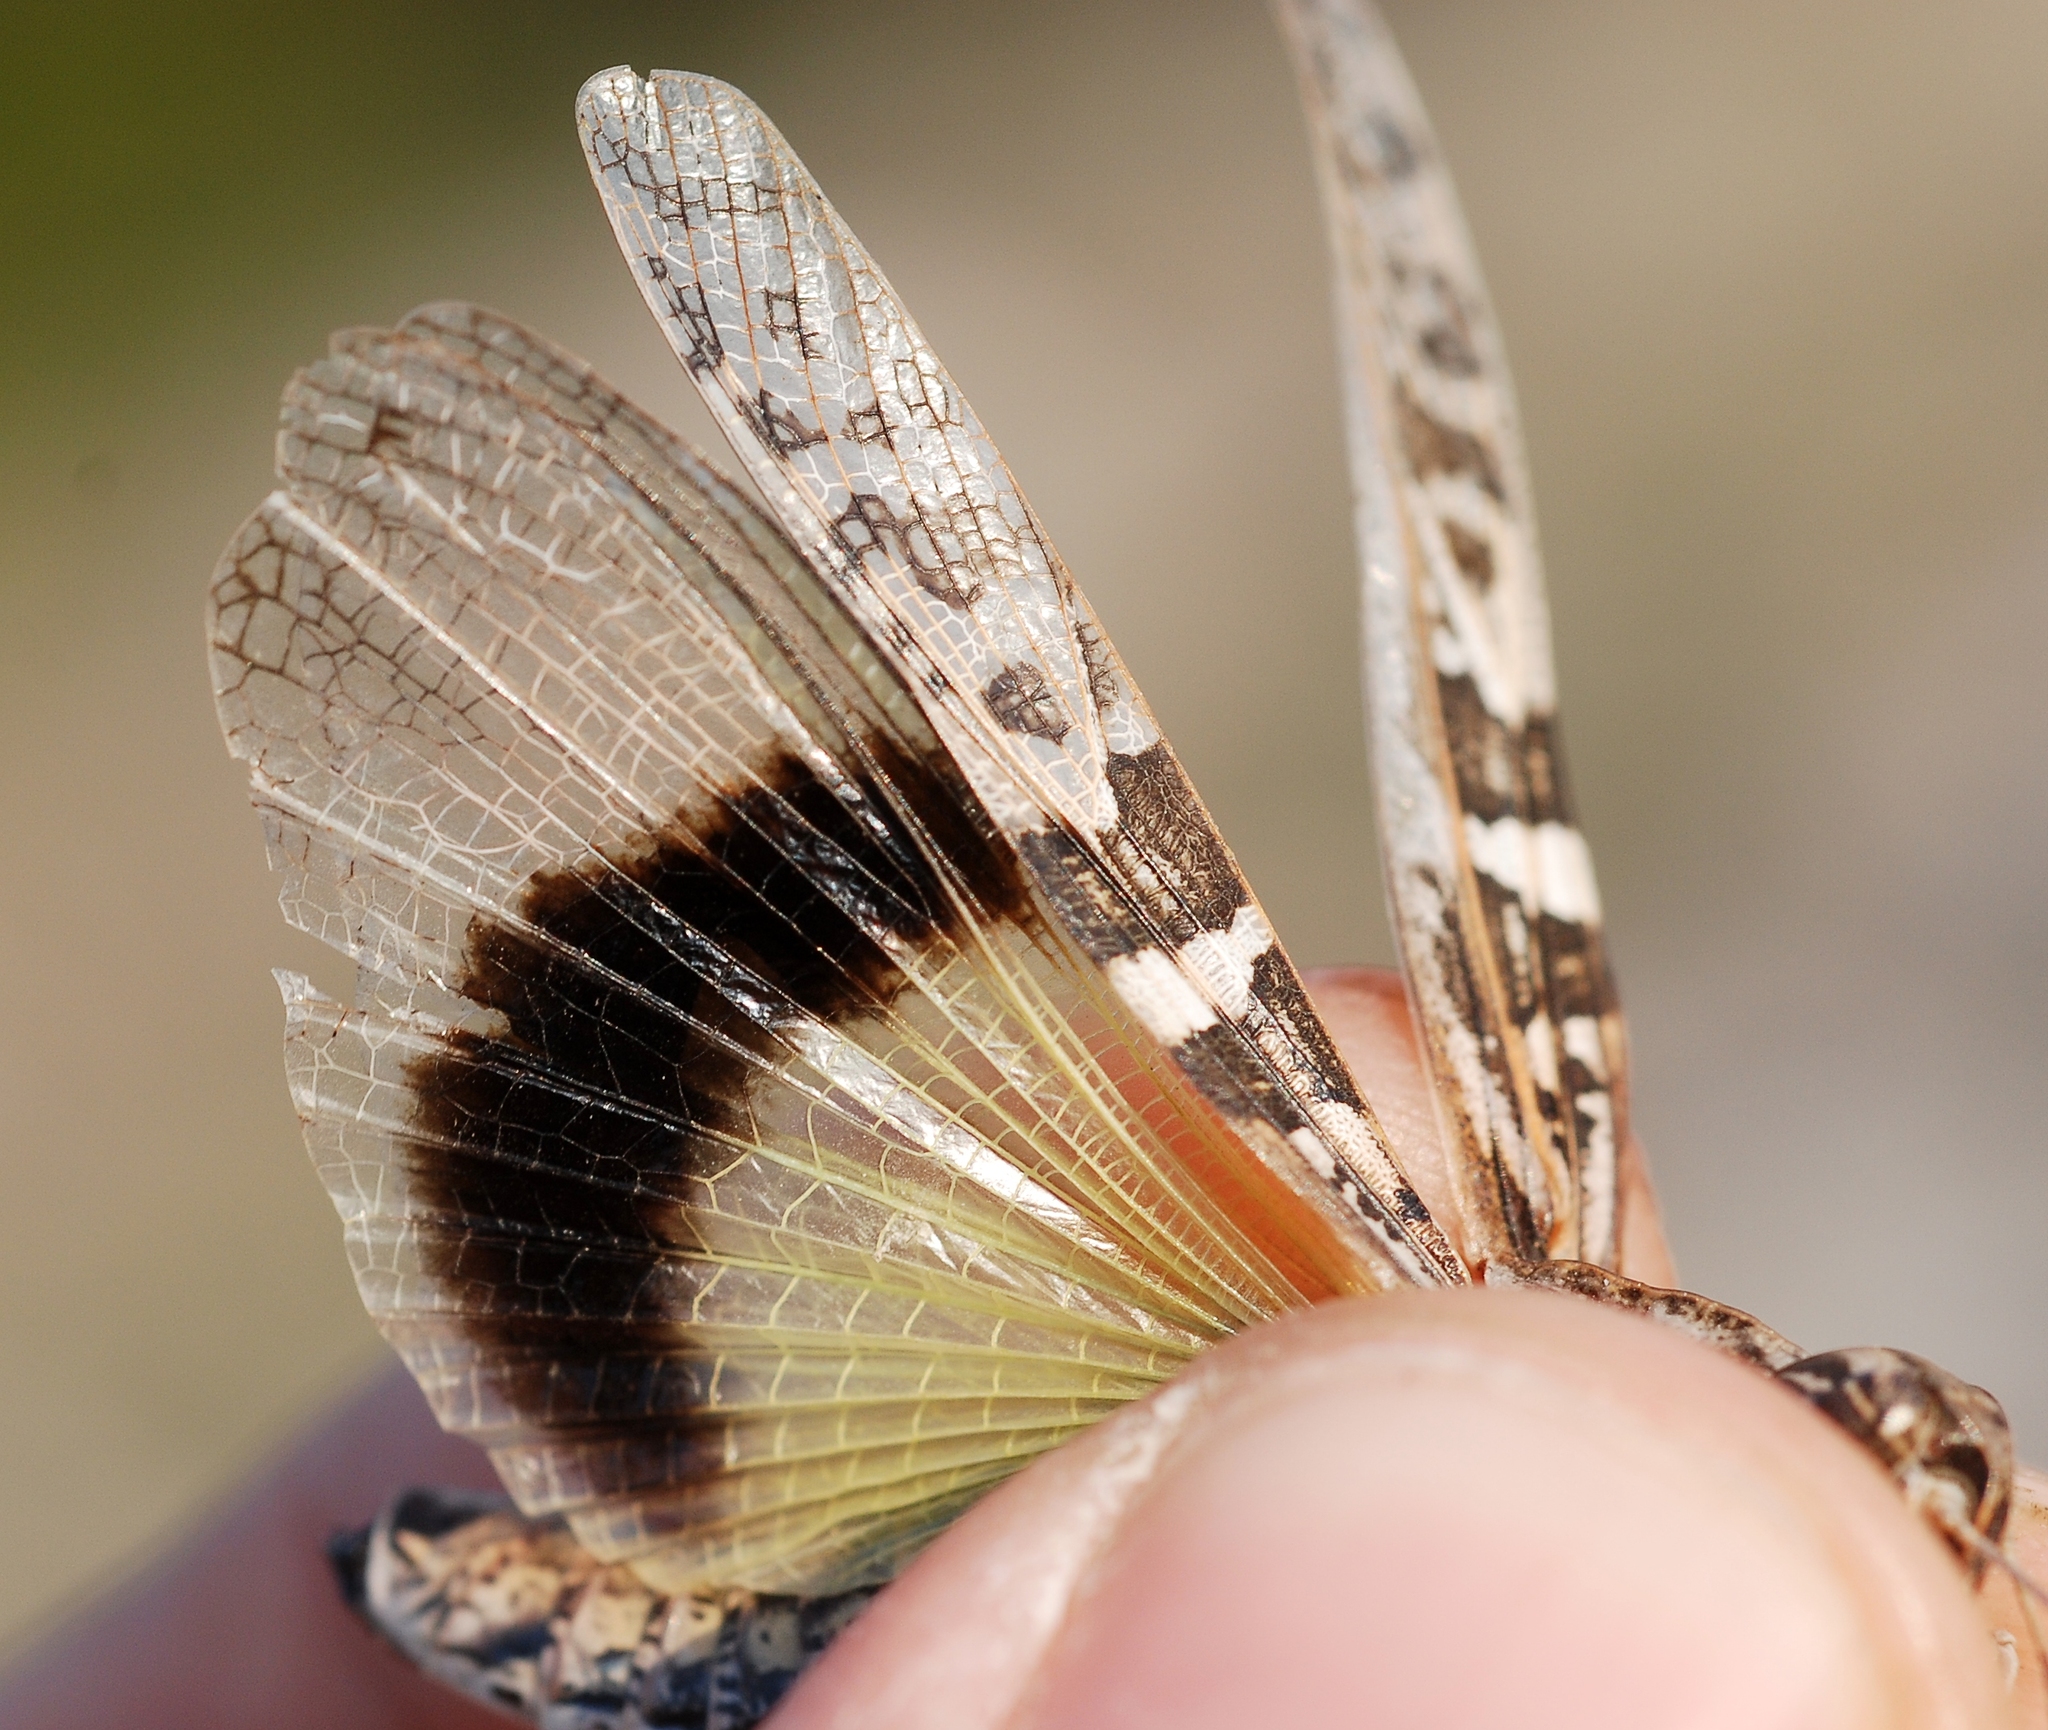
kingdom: Animalia
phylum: Arthropoda
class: Insecta
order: Orthoptera
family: Acrididae
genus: Oedaleus
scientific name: Oedaleus decorus
